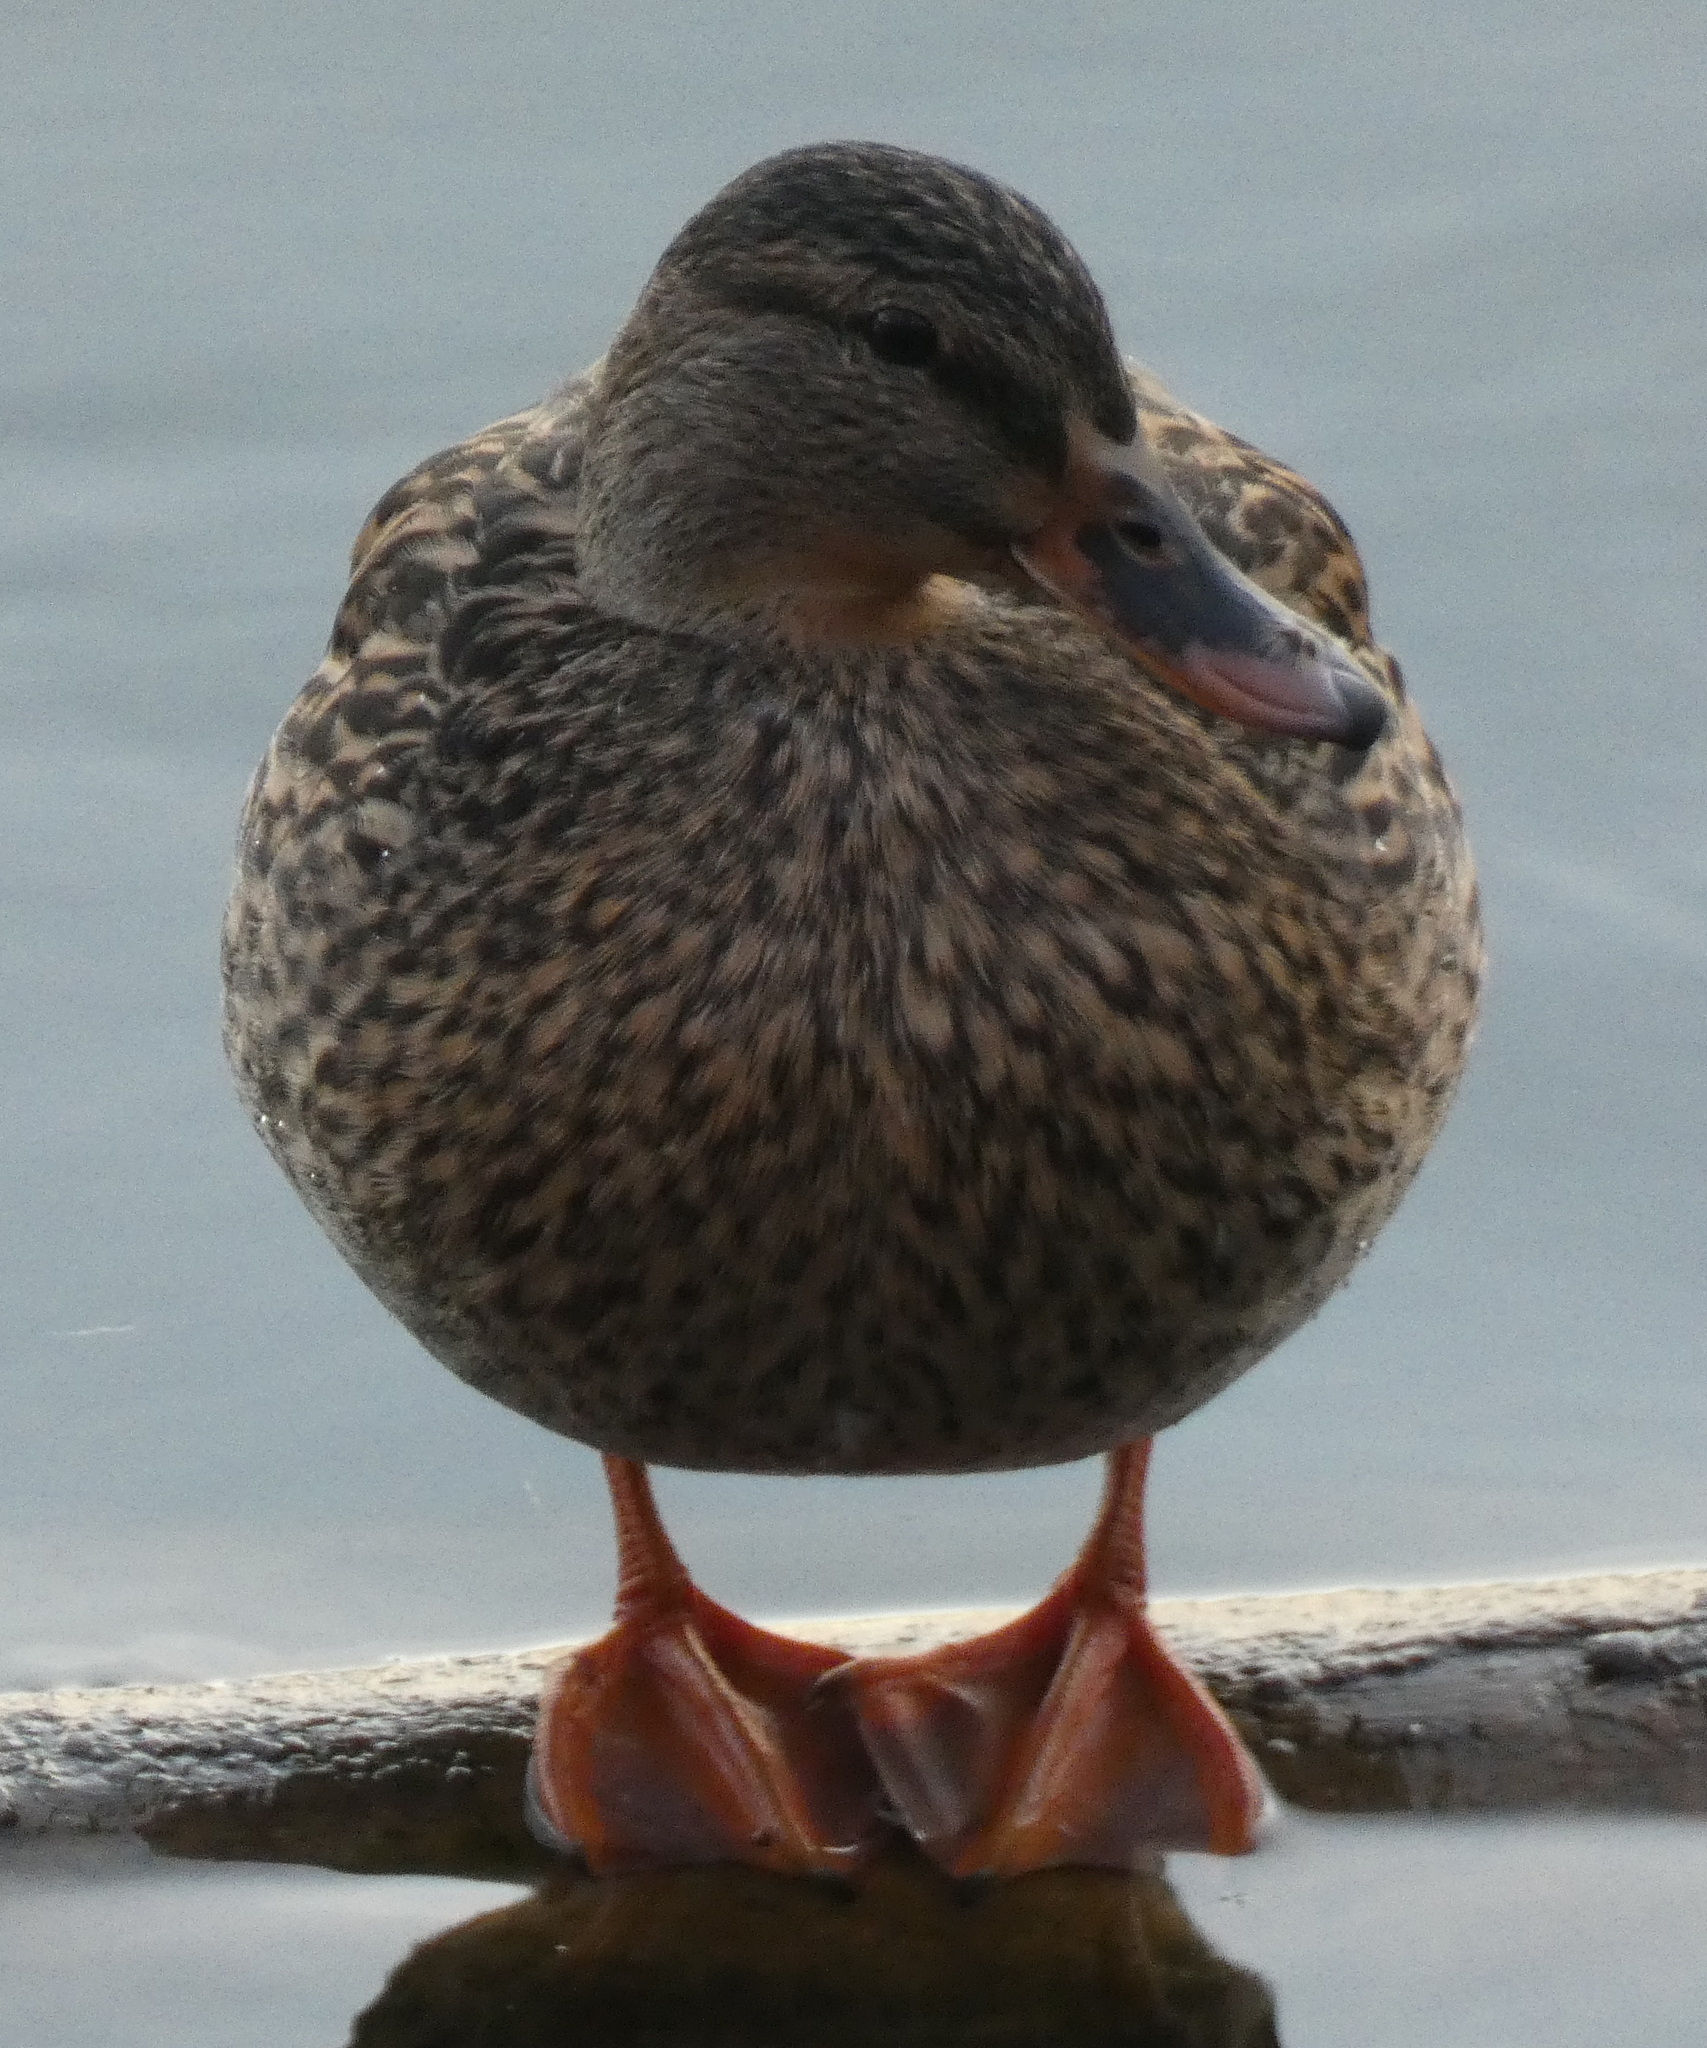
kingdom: Animalia
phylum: Chordata
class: Aves
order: Anseriformes
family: Anatidae
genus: Anas
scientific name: Anas platyrhynchos
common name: Mallard
